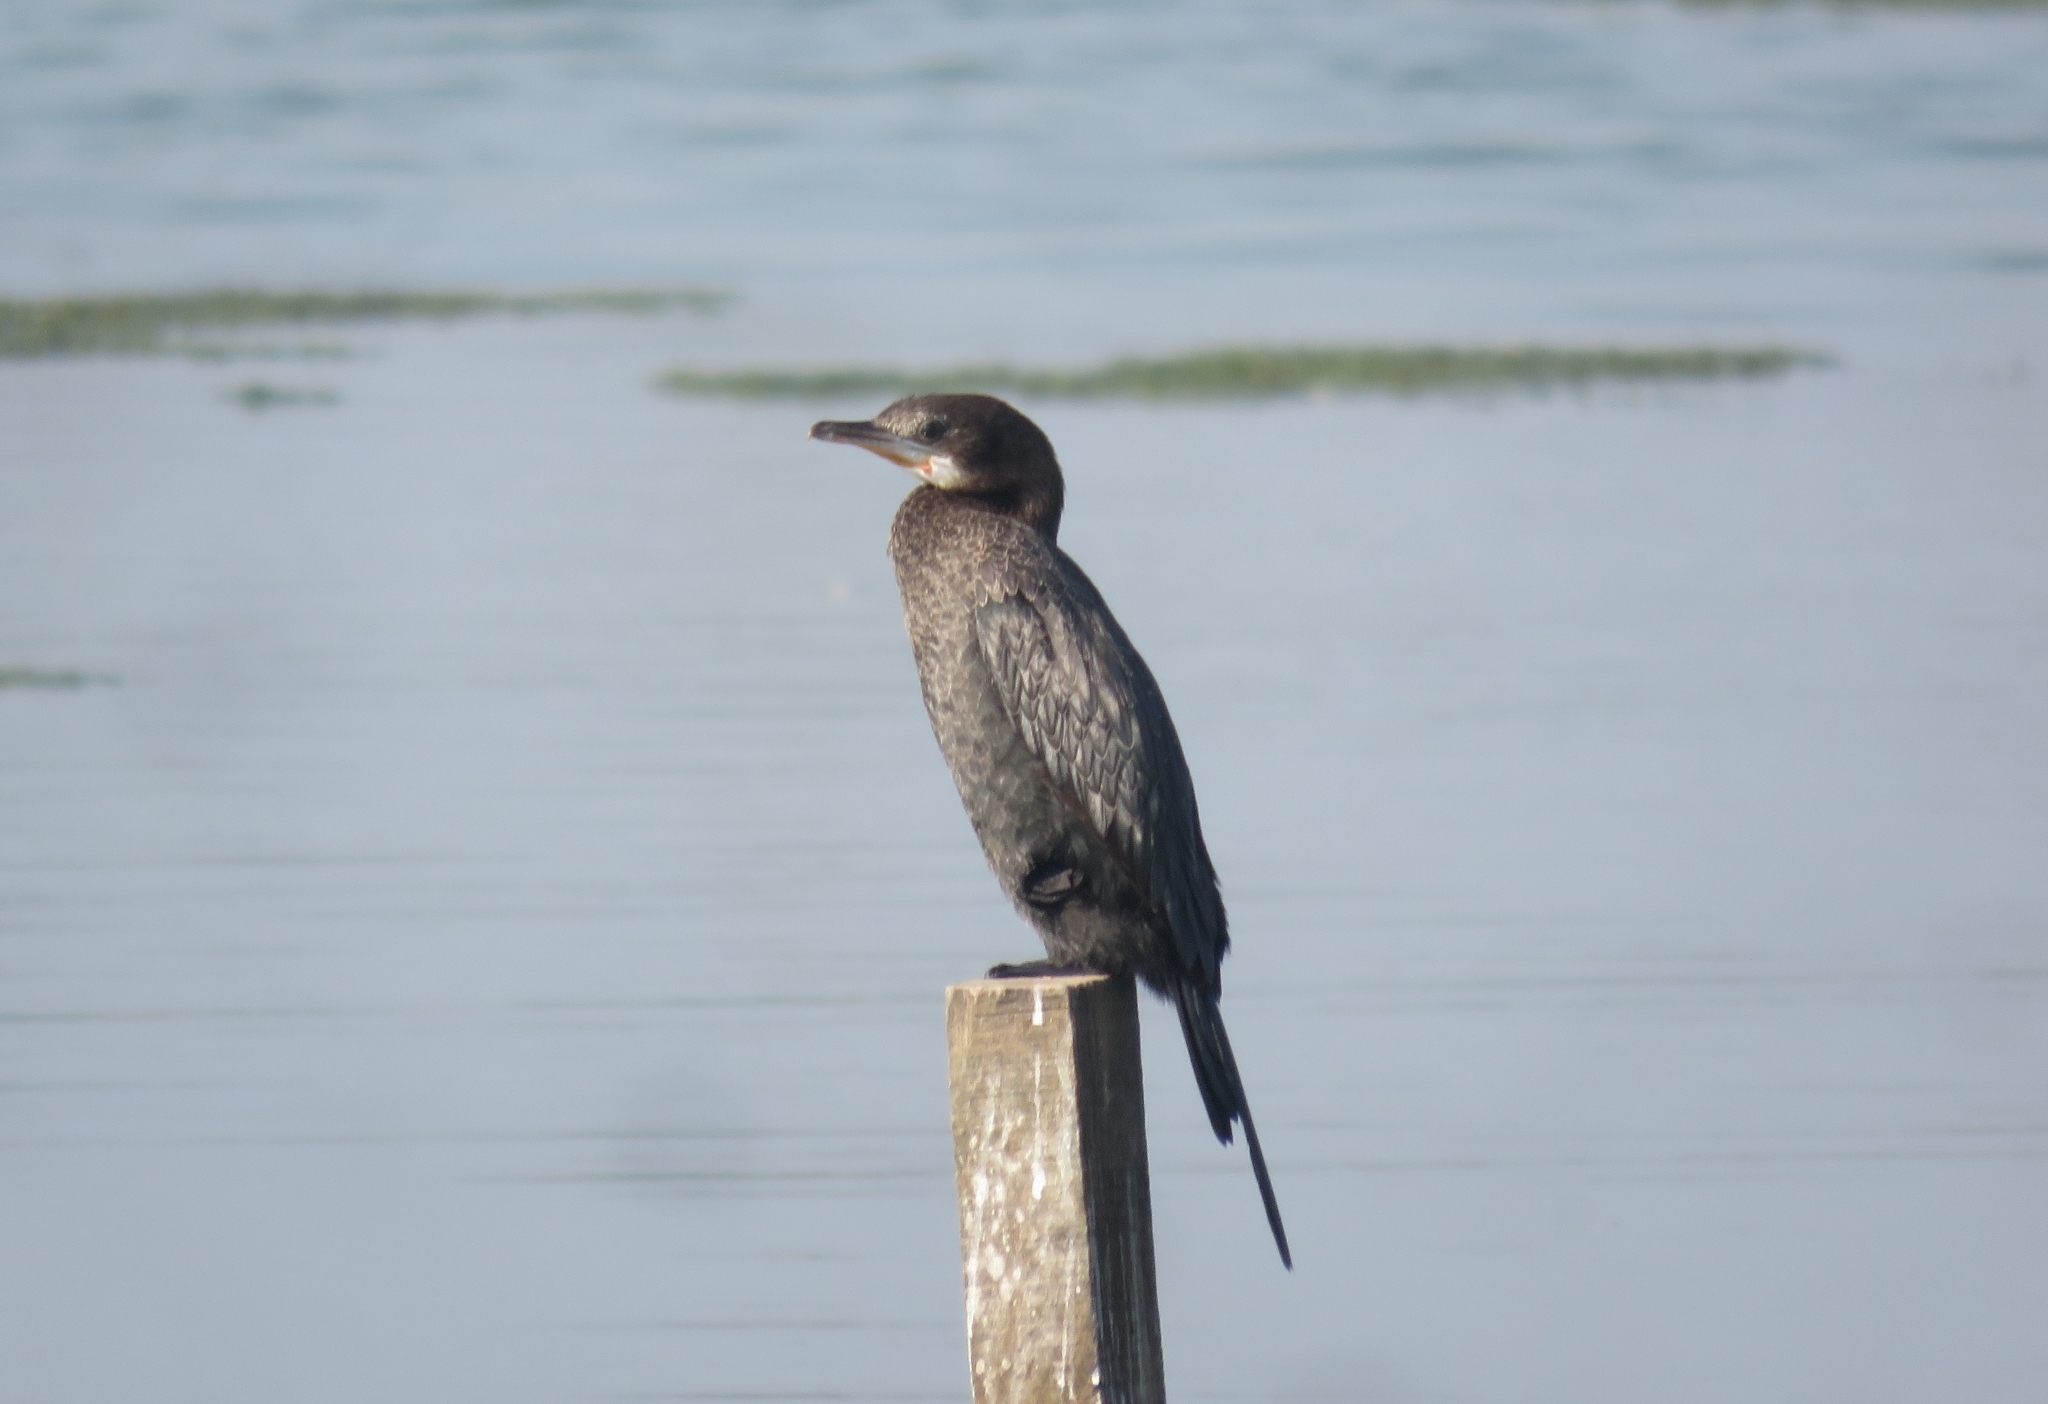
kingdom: Animalia
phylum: Chordata
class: Aves
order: Suliformes
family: Phalacrocoracidae
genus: Microcarbo
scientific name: Microcarbo niger
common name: Little cormorant
